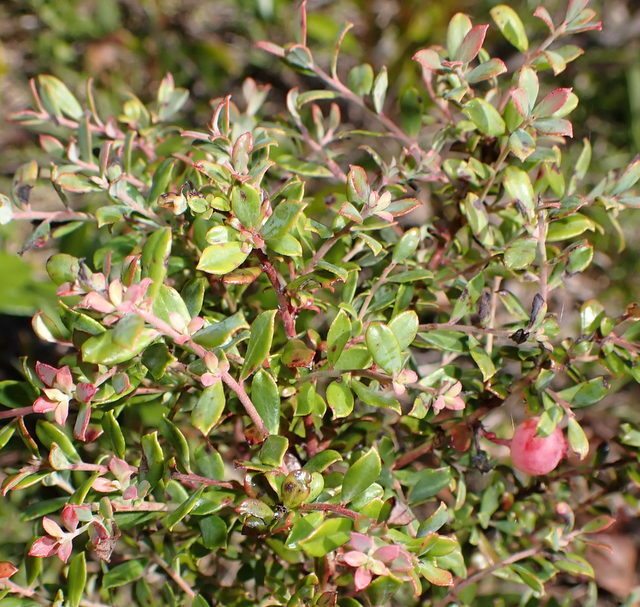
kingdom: Plantae
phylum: Tracheophyta
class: Magnoliopsida
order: Ericales
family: Ericaceae
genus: Vaccinium
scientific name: Vaccinium darrowii
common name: Darrow's blueberry
